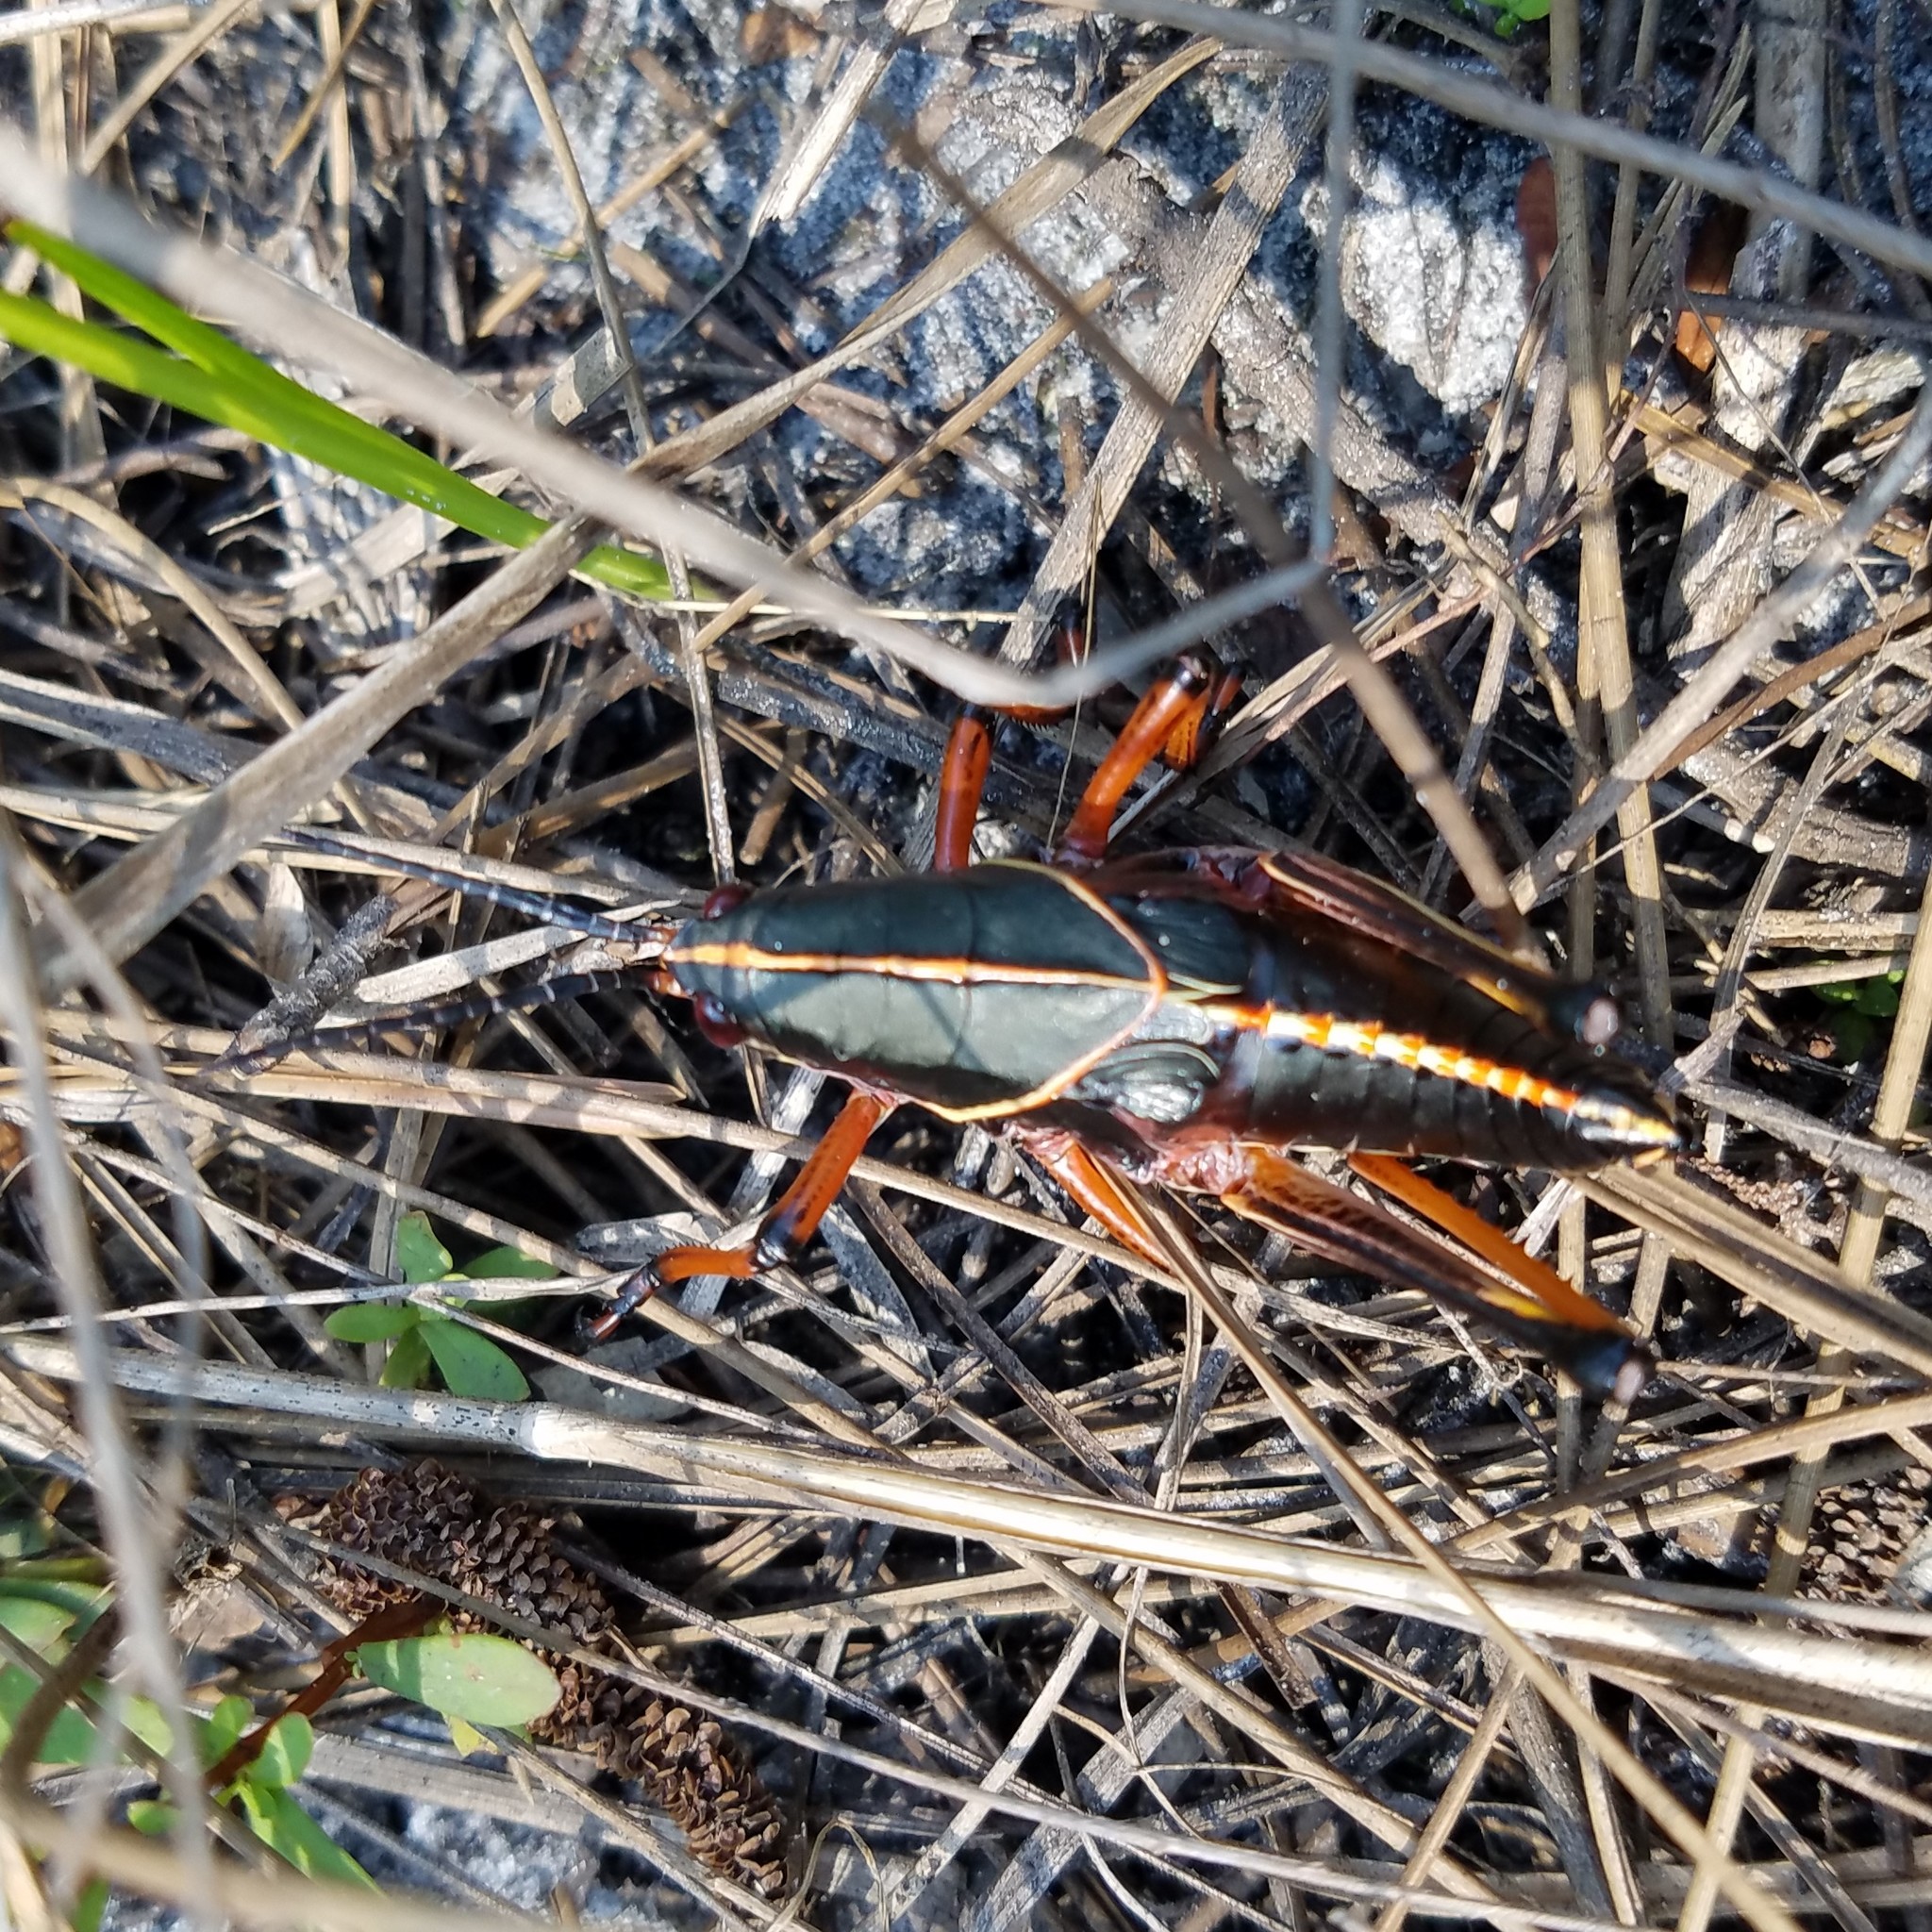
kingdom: Animalia
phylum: Arthropoda
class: Insecta
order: Orthoptera
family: Romaleidae
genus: Romalea
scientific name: Romalea microptera
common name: Eastern lubber grasshopper
